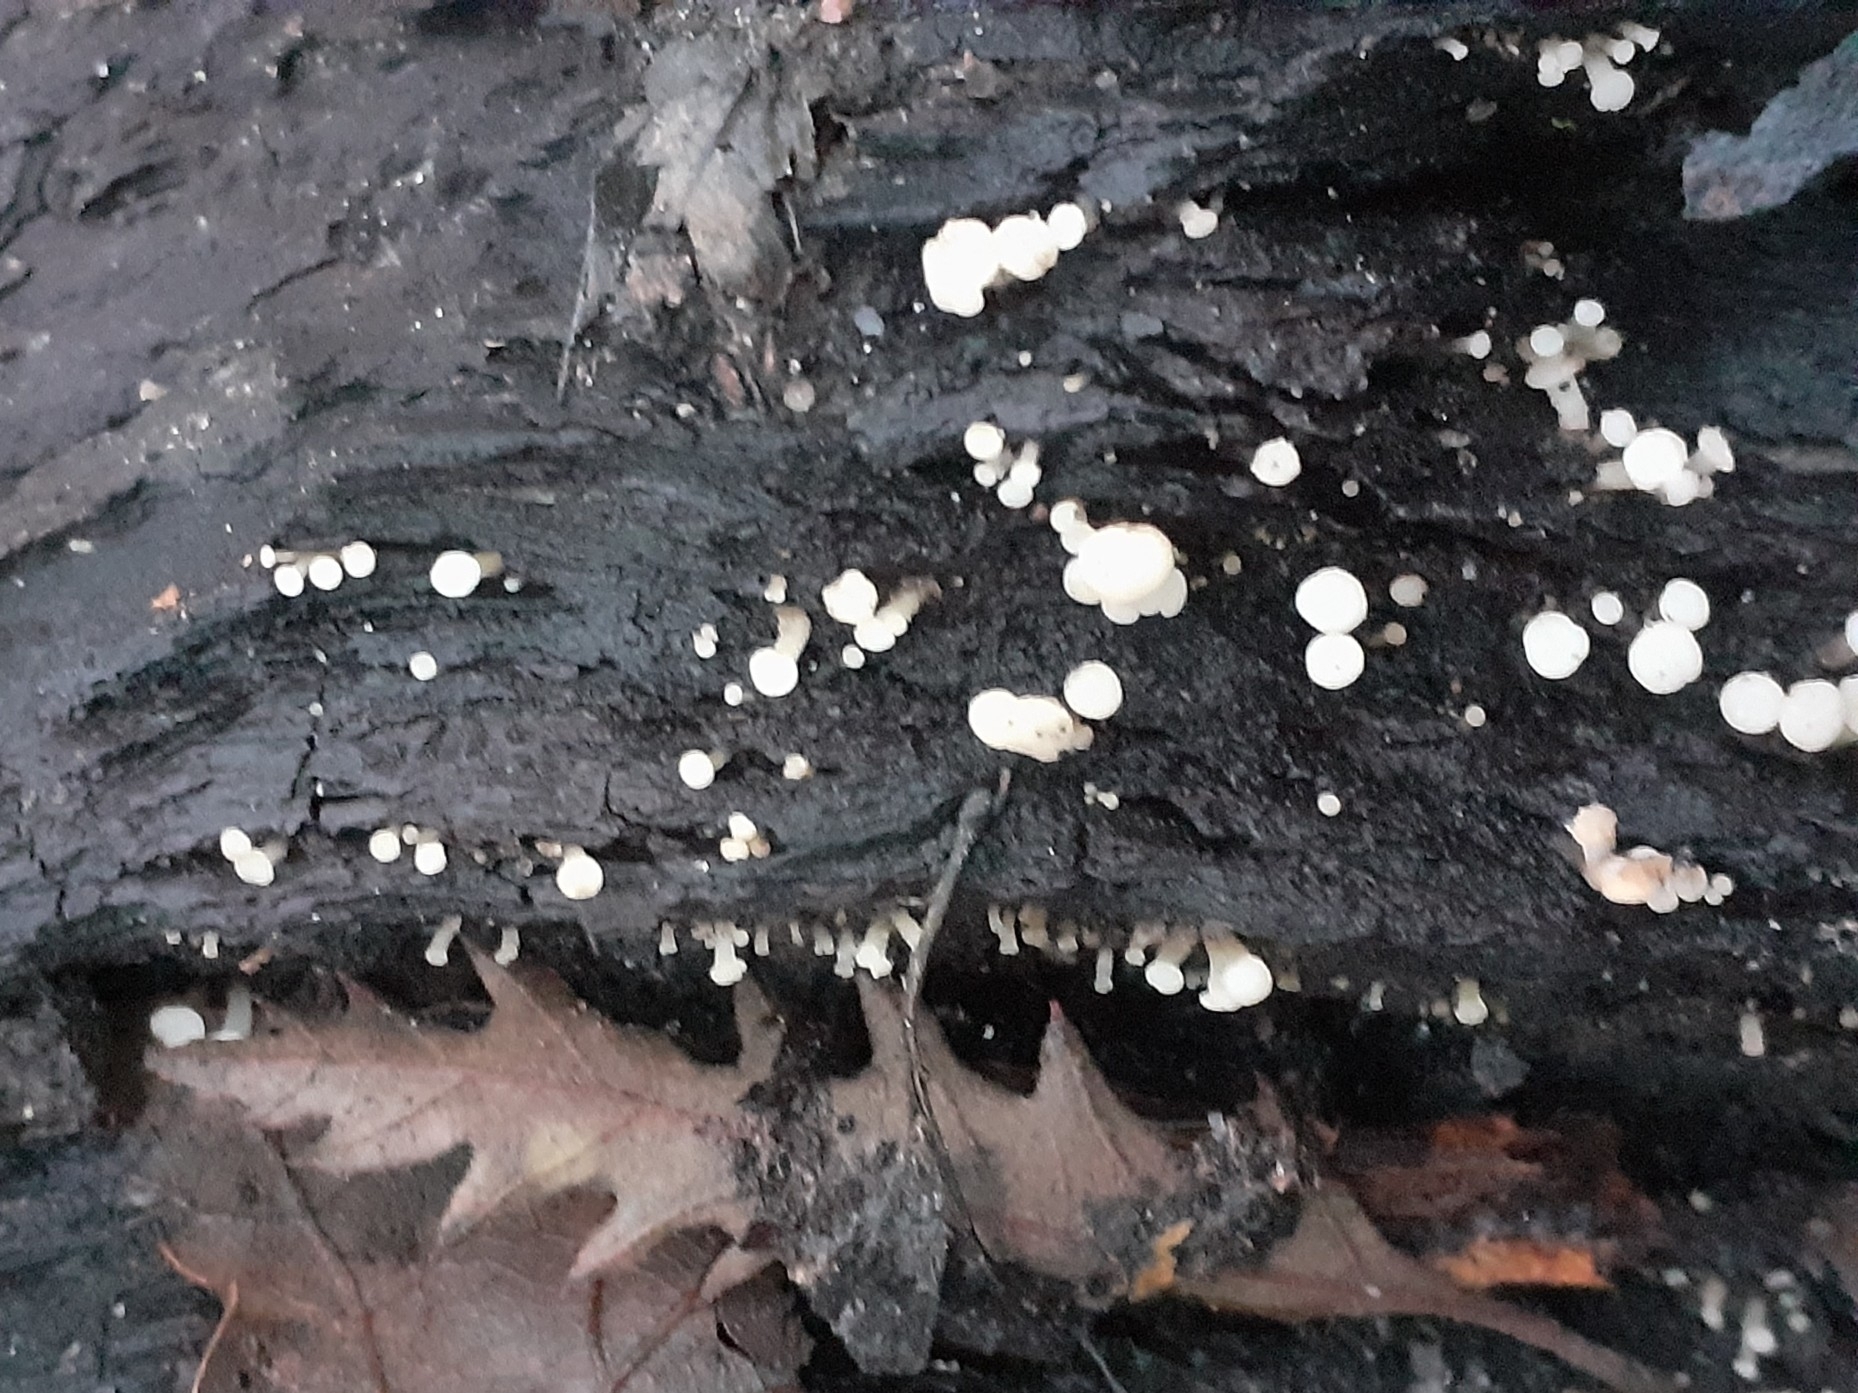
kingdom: Fungi
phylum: Ascomycota
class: Leotiomycetes
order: Helotiales
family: Tricladiaceae
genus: Cudoniella
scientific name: Cudoniella acicularis
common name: Oak pin
